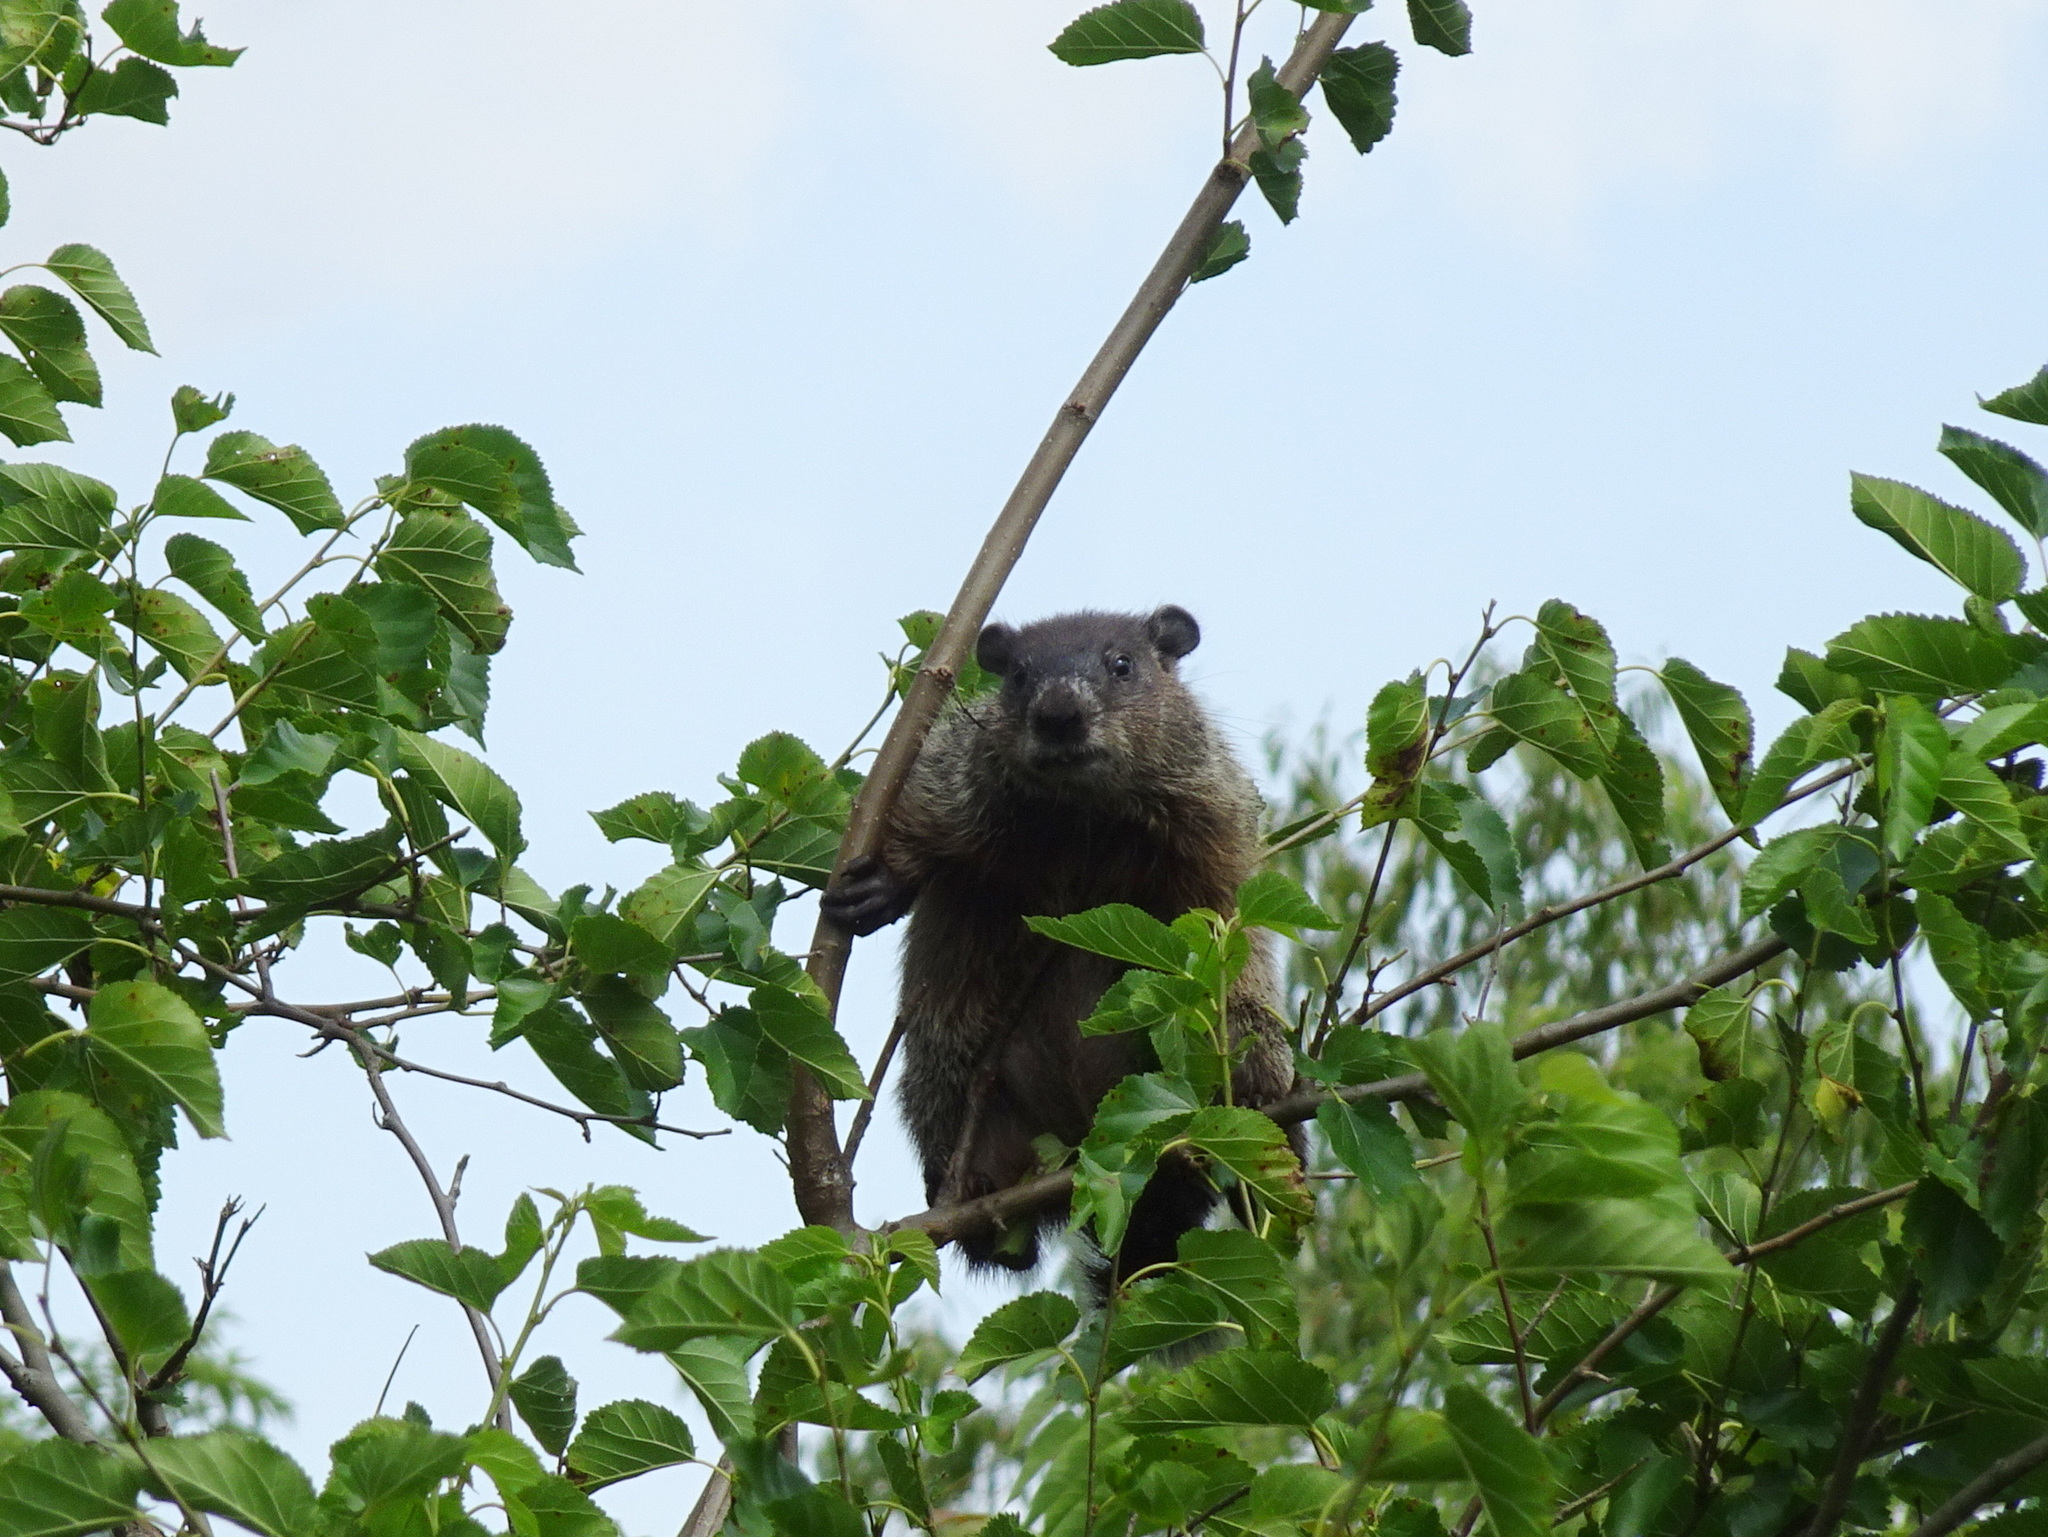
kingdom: Animalia
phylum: Chordata
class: Mammalia
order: Rodentia
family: Sciuridae
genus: Marmota
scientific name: Marmota monax
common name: Groundhog
